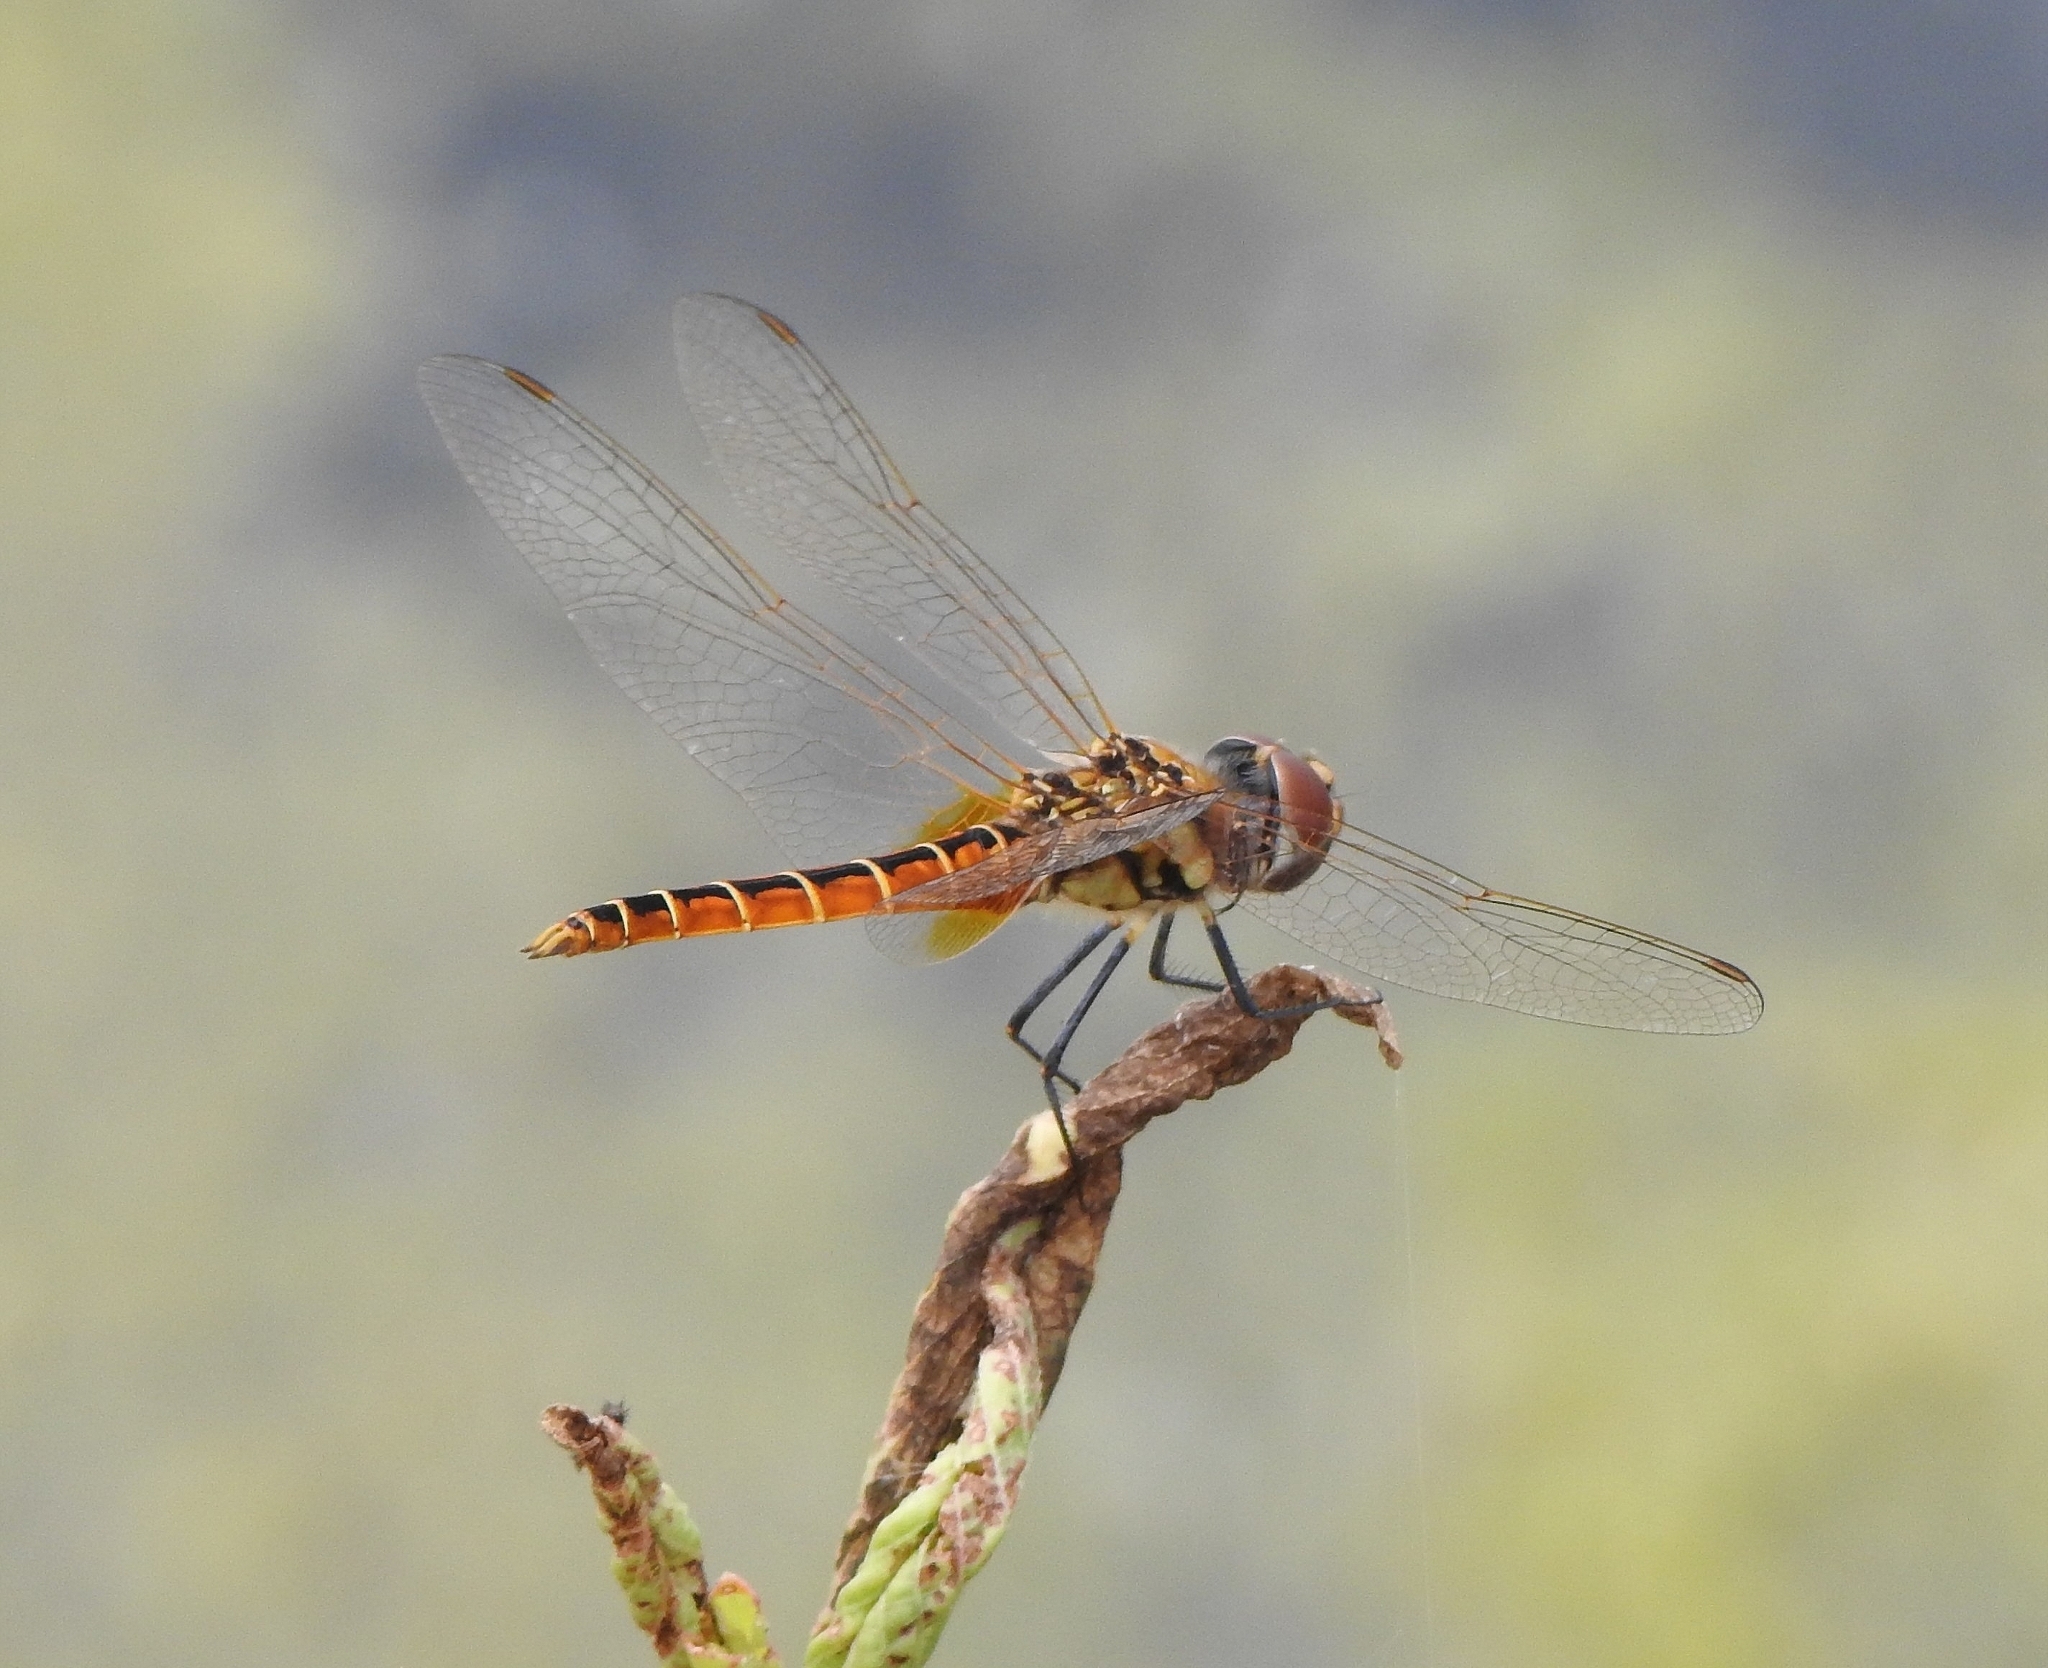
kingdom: Animalia
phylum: Arthropoda
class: Insecta
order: Odonata
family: Libellulidae
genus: Macrodiplax
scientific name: Macrodiplax cora
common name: Coastal glider
